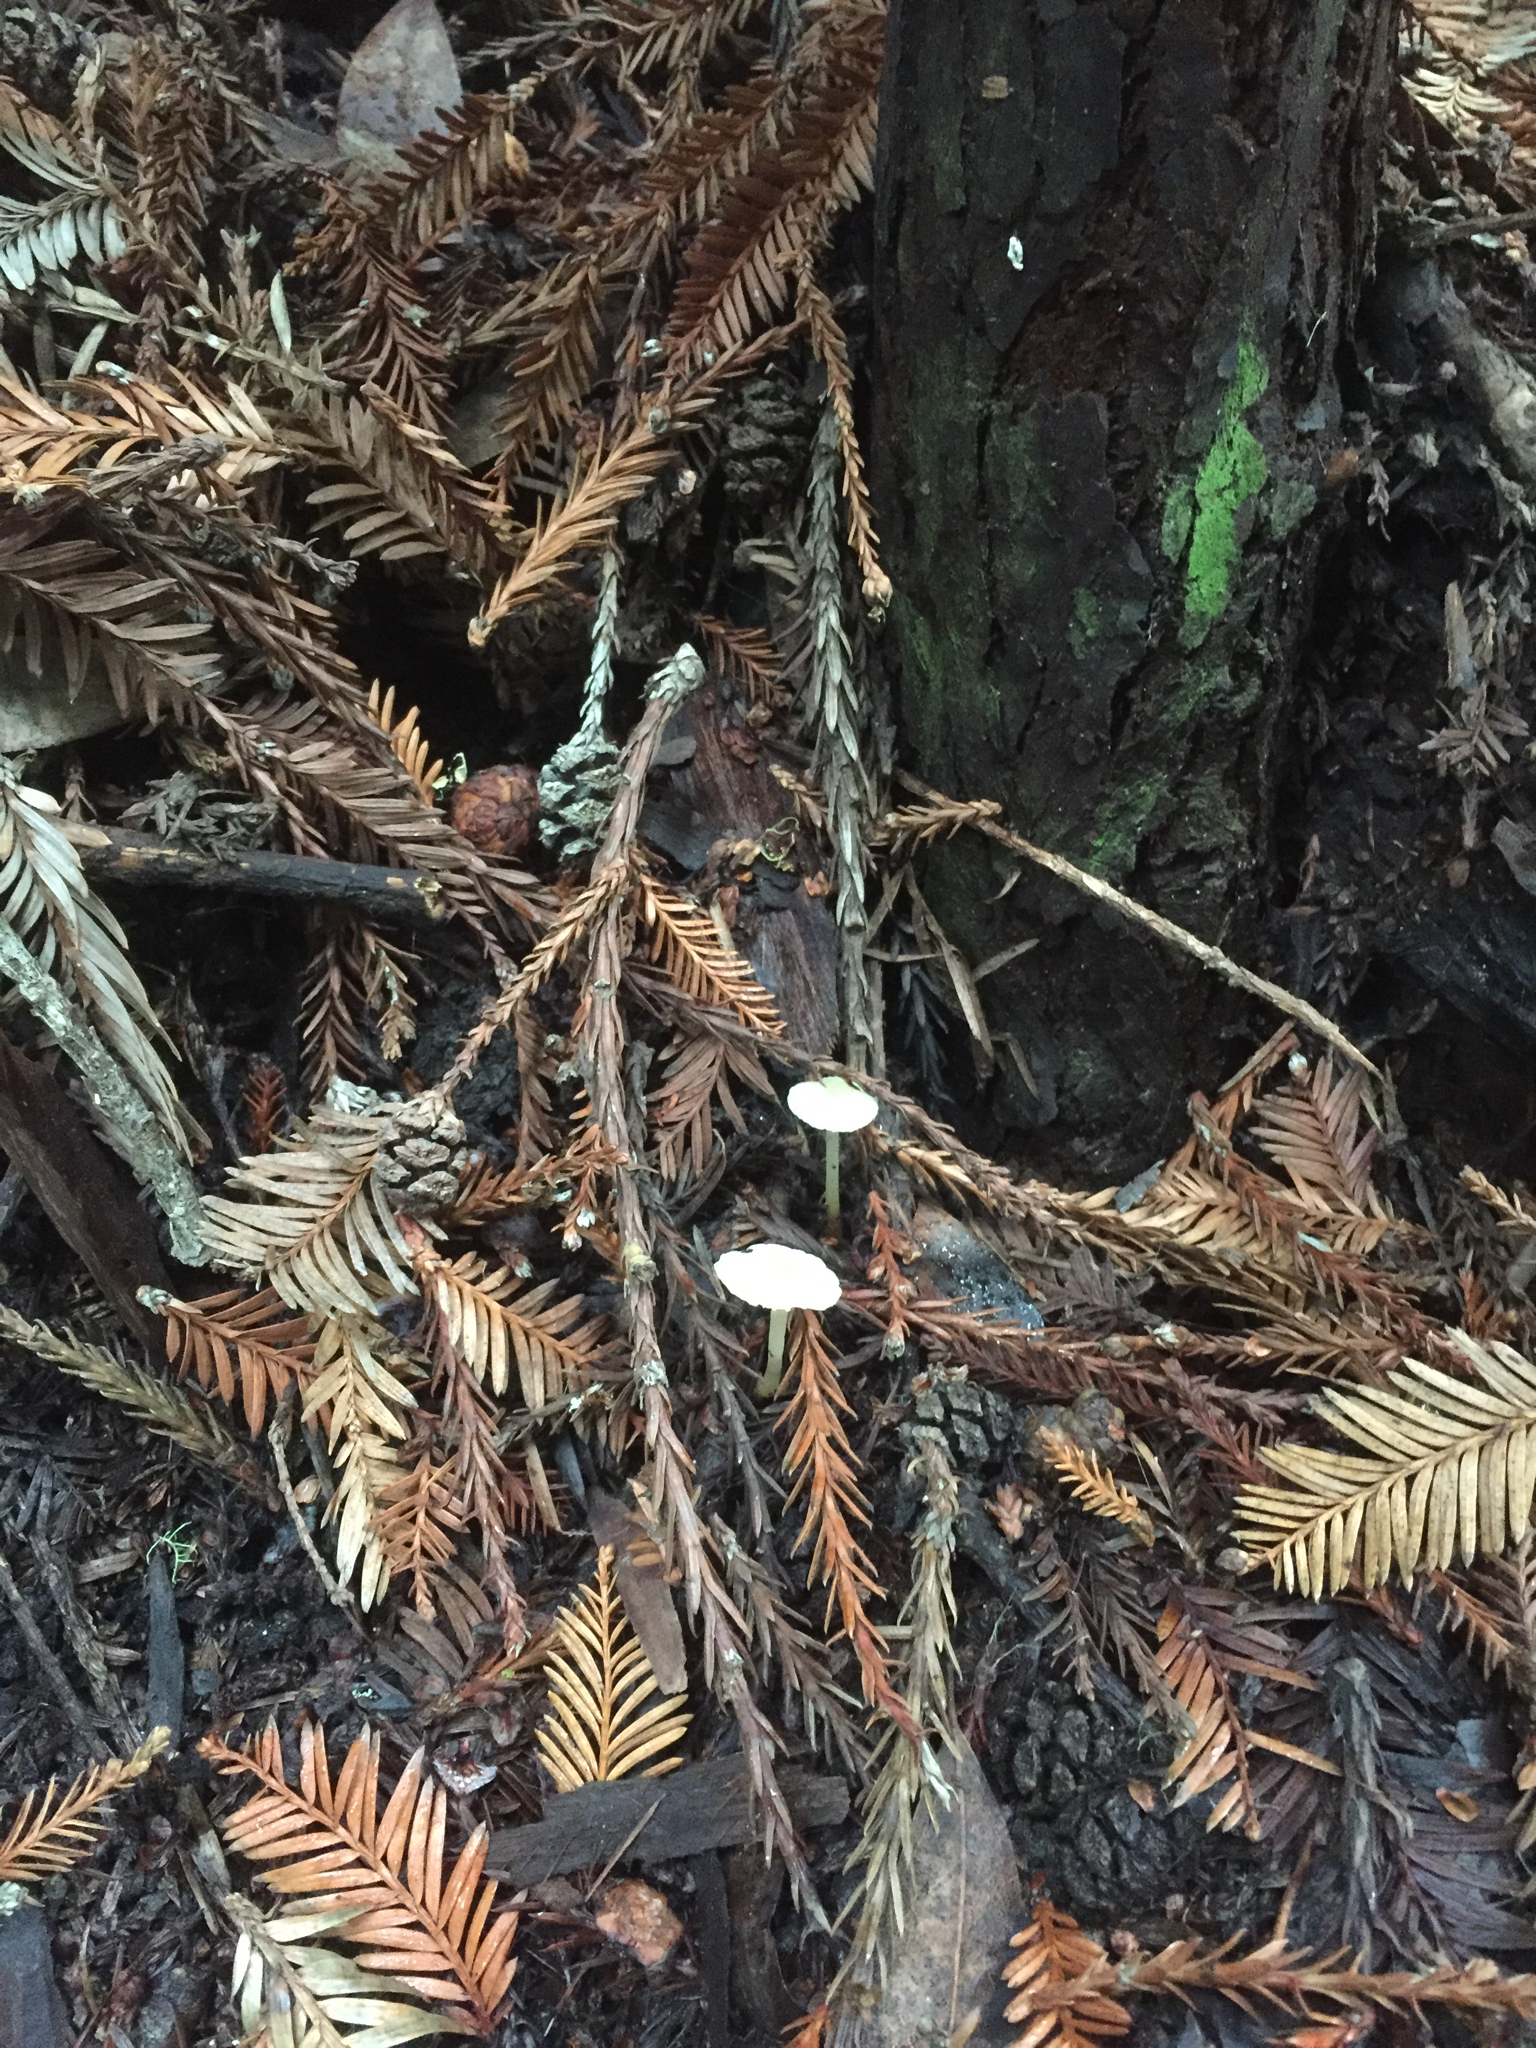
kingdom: Fungi
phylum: Basidiomycota
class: Agaricomycetes
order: Agaricales
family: Hygrophoraceae
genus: Cuphophyllus
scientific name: Cuphophyllus russocoriaceus
